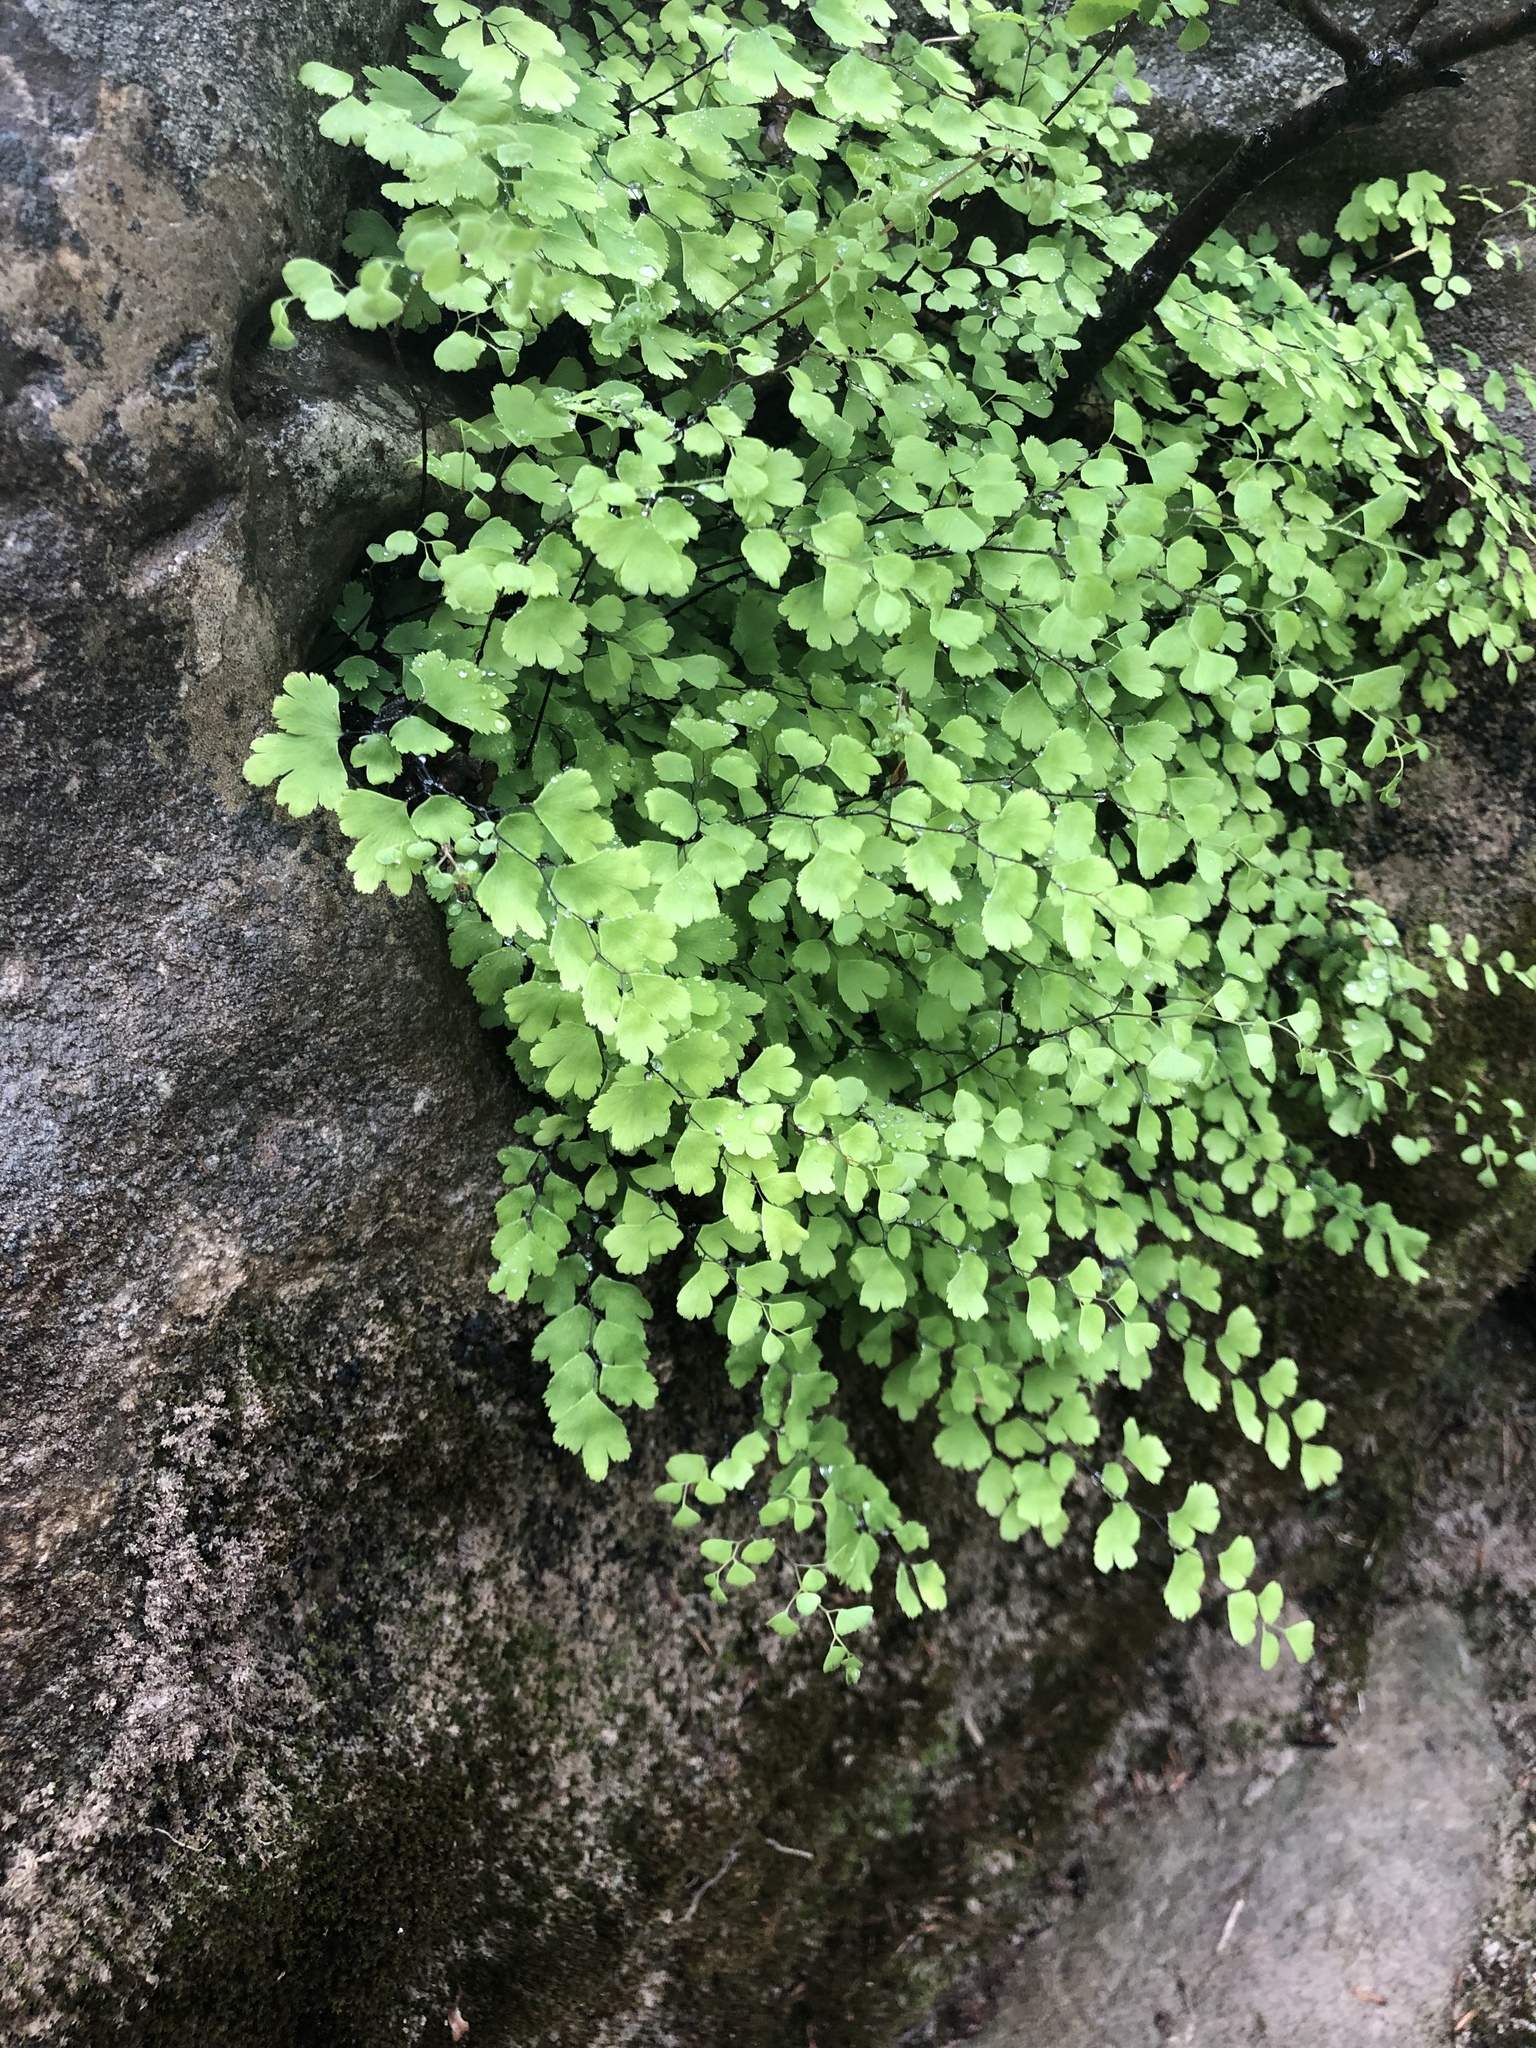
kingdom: Plantae
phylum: Tracheophyta
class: Polypodiopsida
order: Polypodiales
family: Pteridaceae
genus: Adiantum
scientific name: Adiantum capillus-veneris
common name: Maidenhair fern
